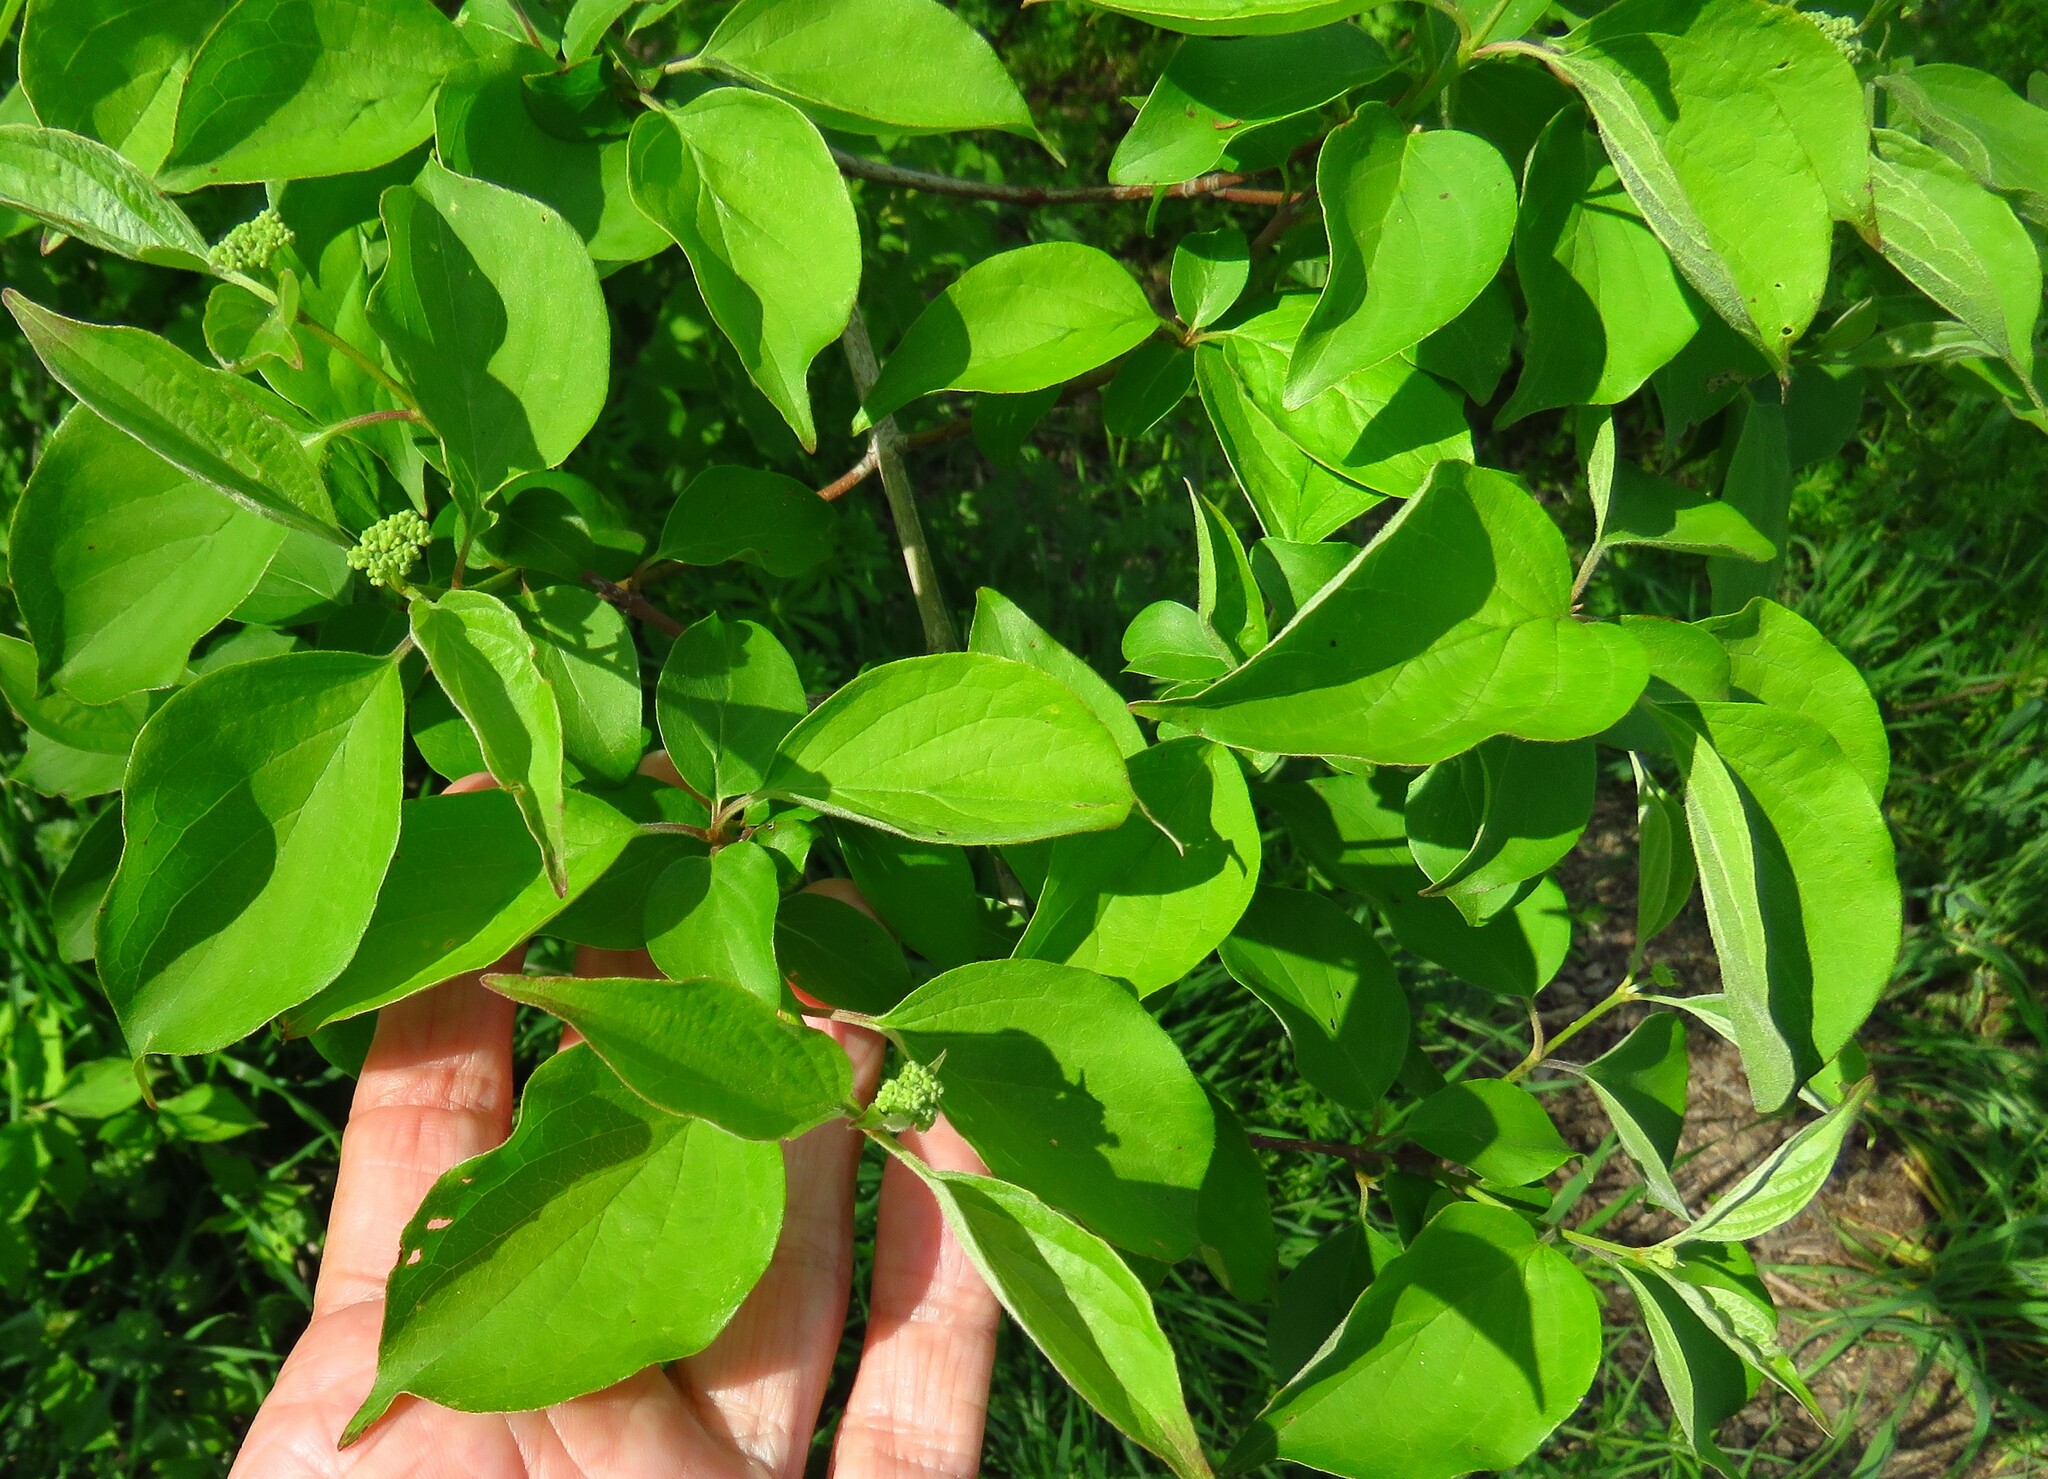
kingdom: Plantae
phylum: Tracheophyta
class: Magnoliopsida
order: Cornales
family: Cornaceae
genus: Cornus
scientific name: Cornus drummondii
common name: Rough-leaf dogwood
